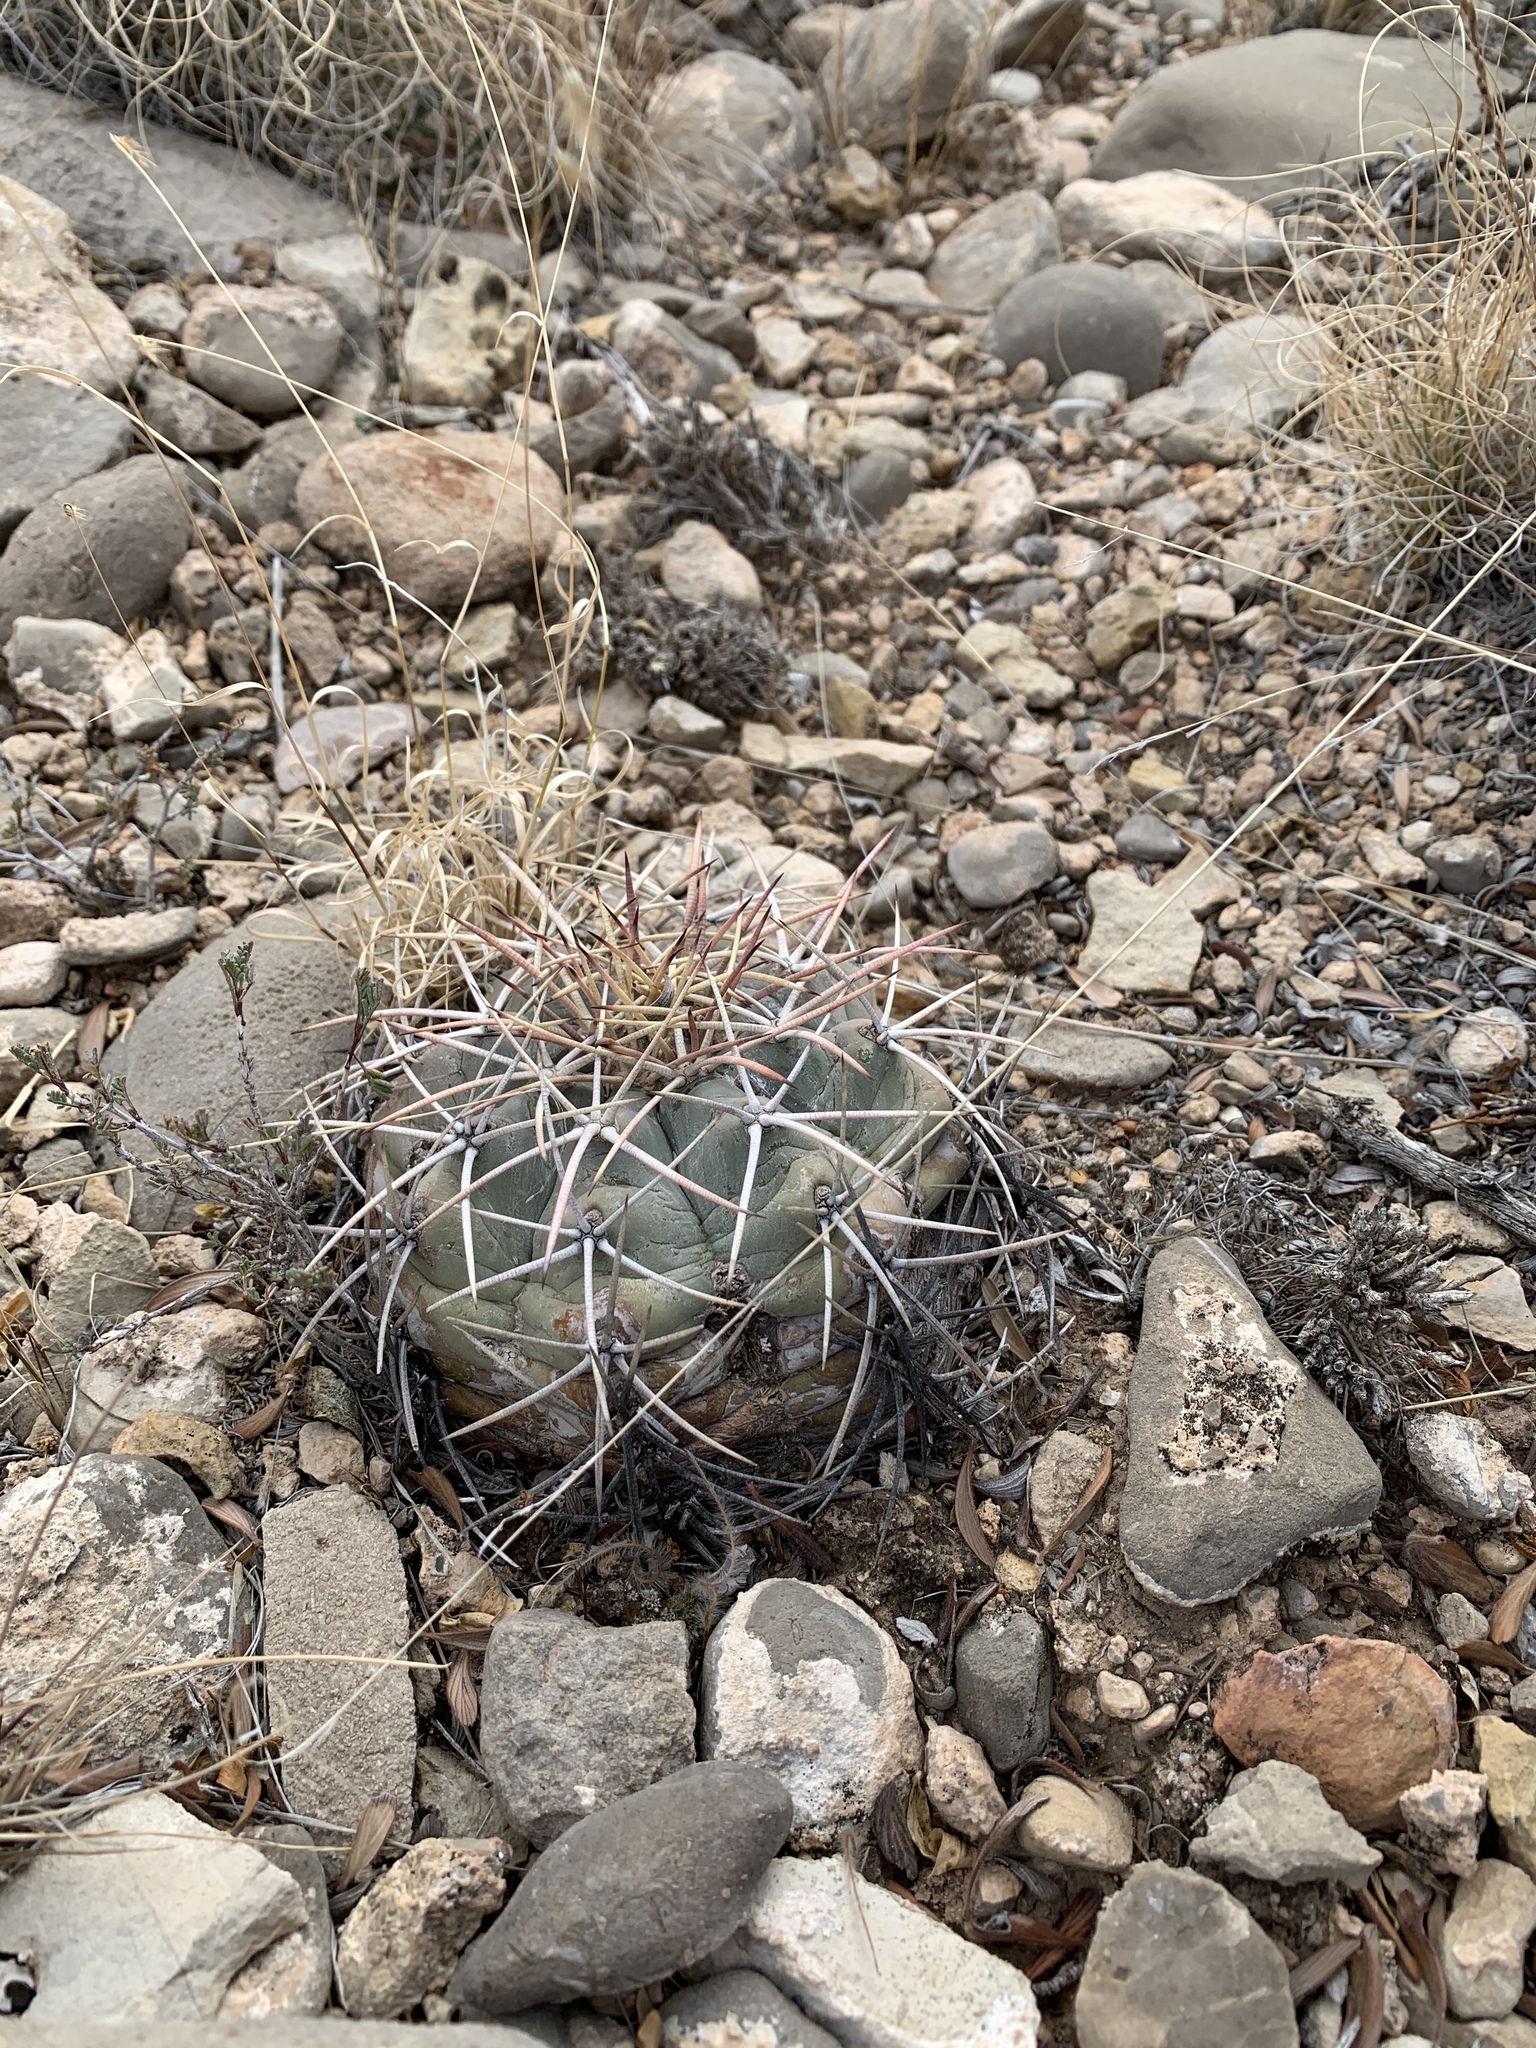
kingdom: Plantae
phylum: Tracheophyta
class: Magnoliopsida
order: Caryophyllales
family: Cactaceae
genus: Echinocactus
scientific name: Echinocactus horizonthalonius
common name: Devilshead
